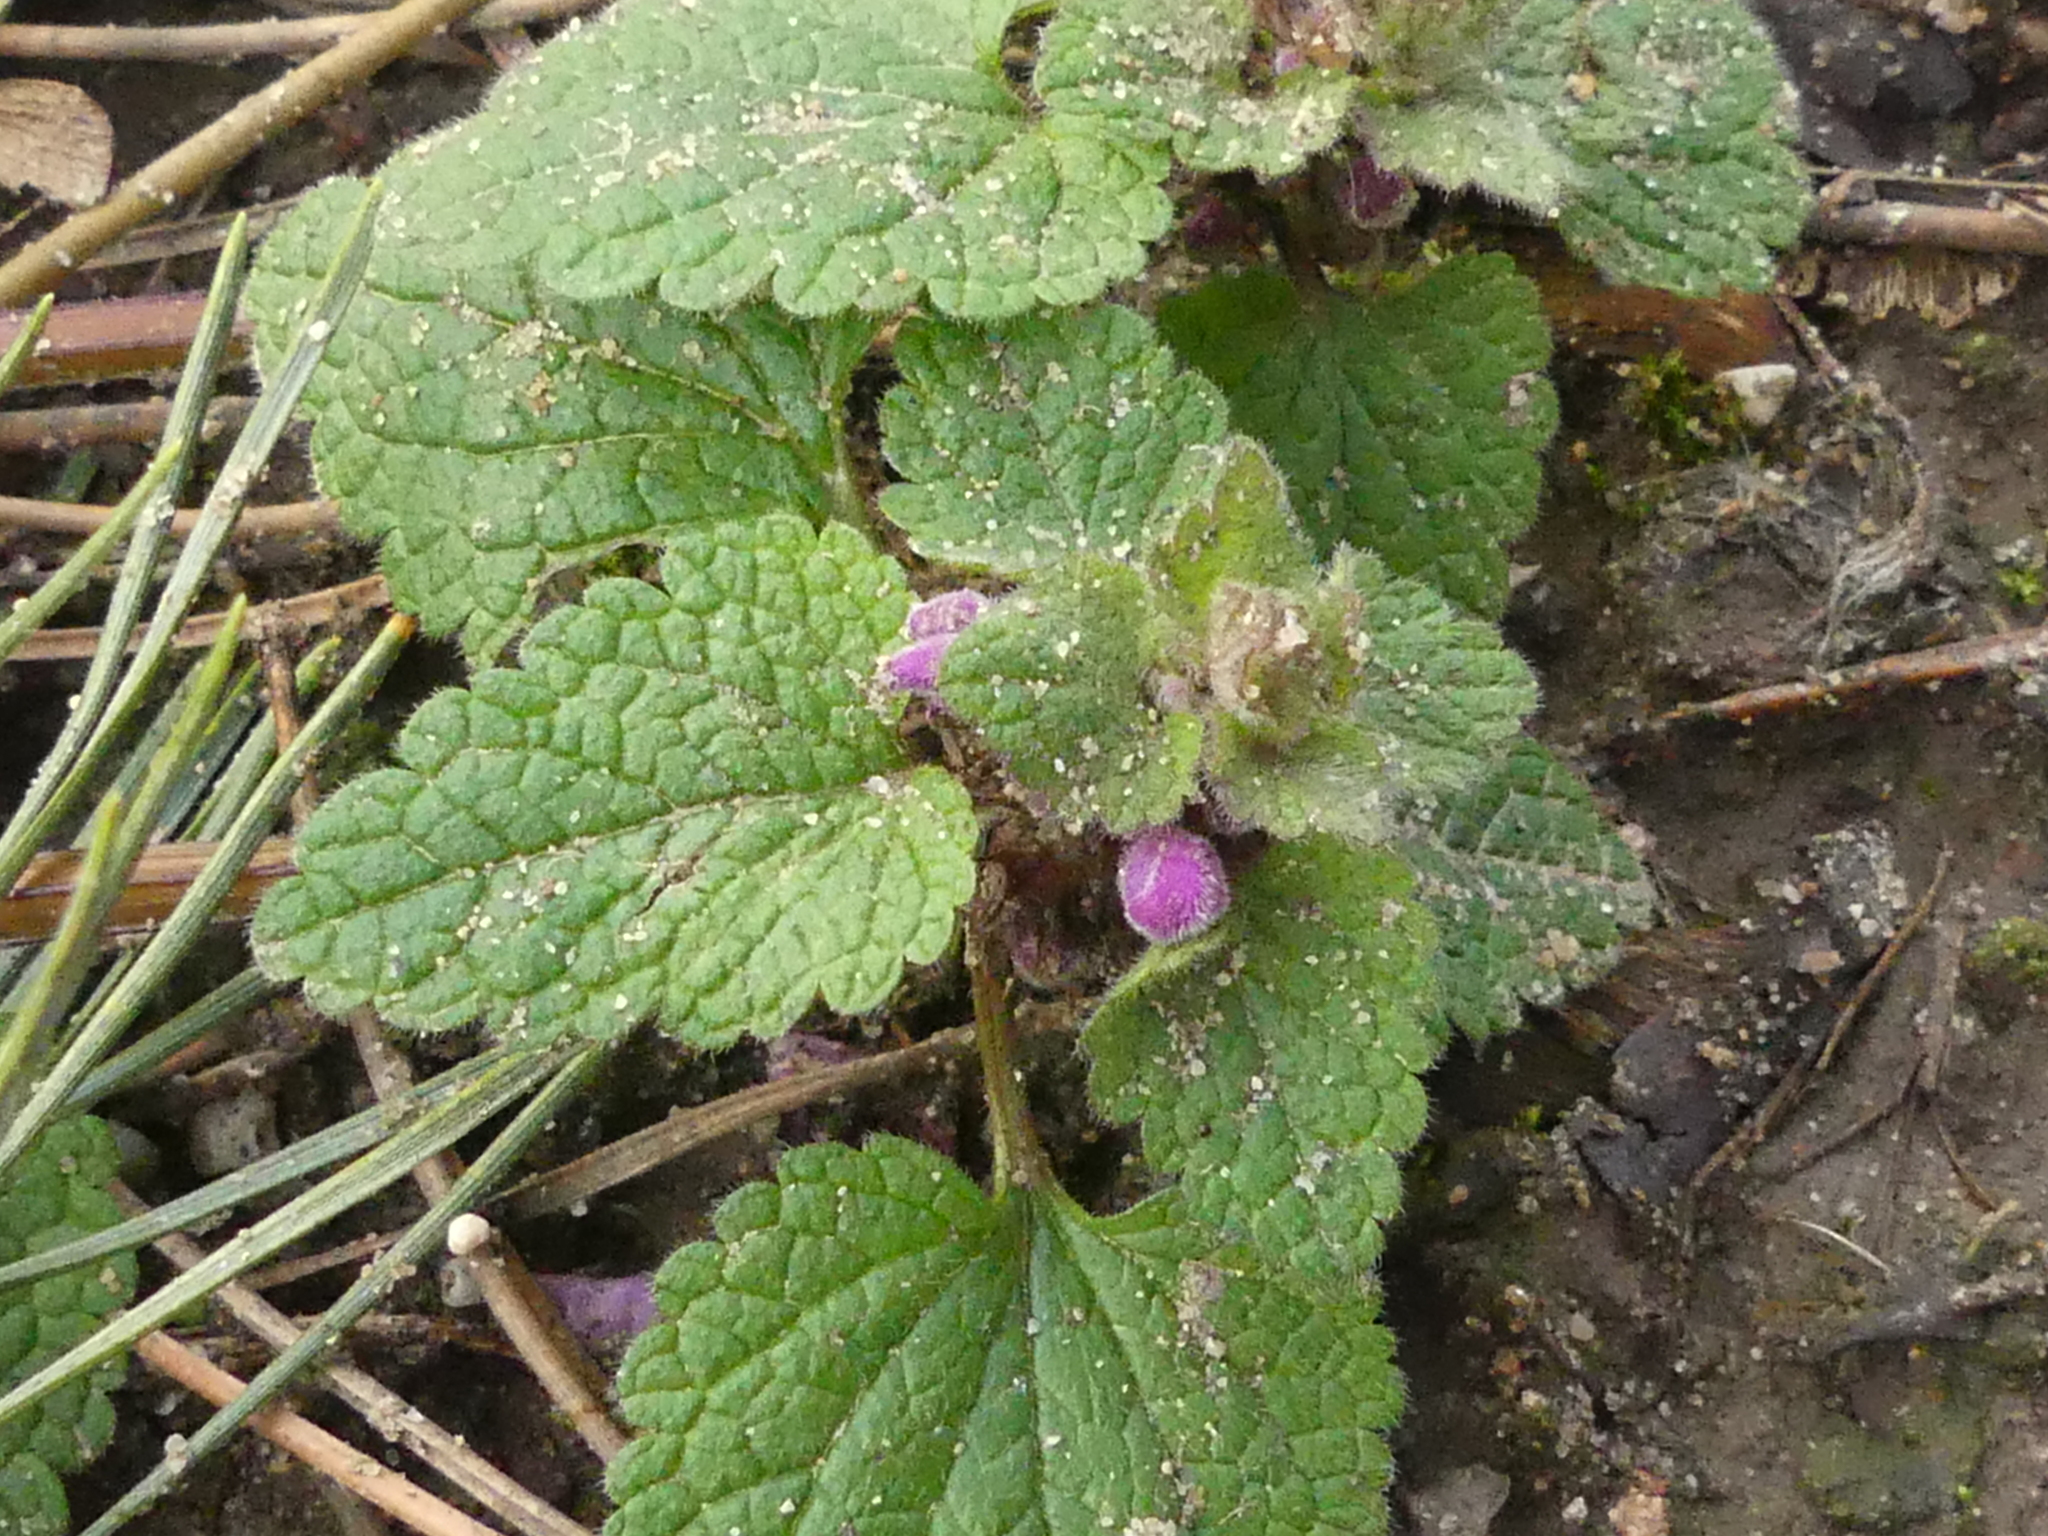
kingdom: Plantae
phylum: Tracheophyta
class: Magnoliopsida
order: Lamiales
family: Lamiaceae
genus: Lamium
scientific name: Lamium purpureum
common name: Red dead-nettle
